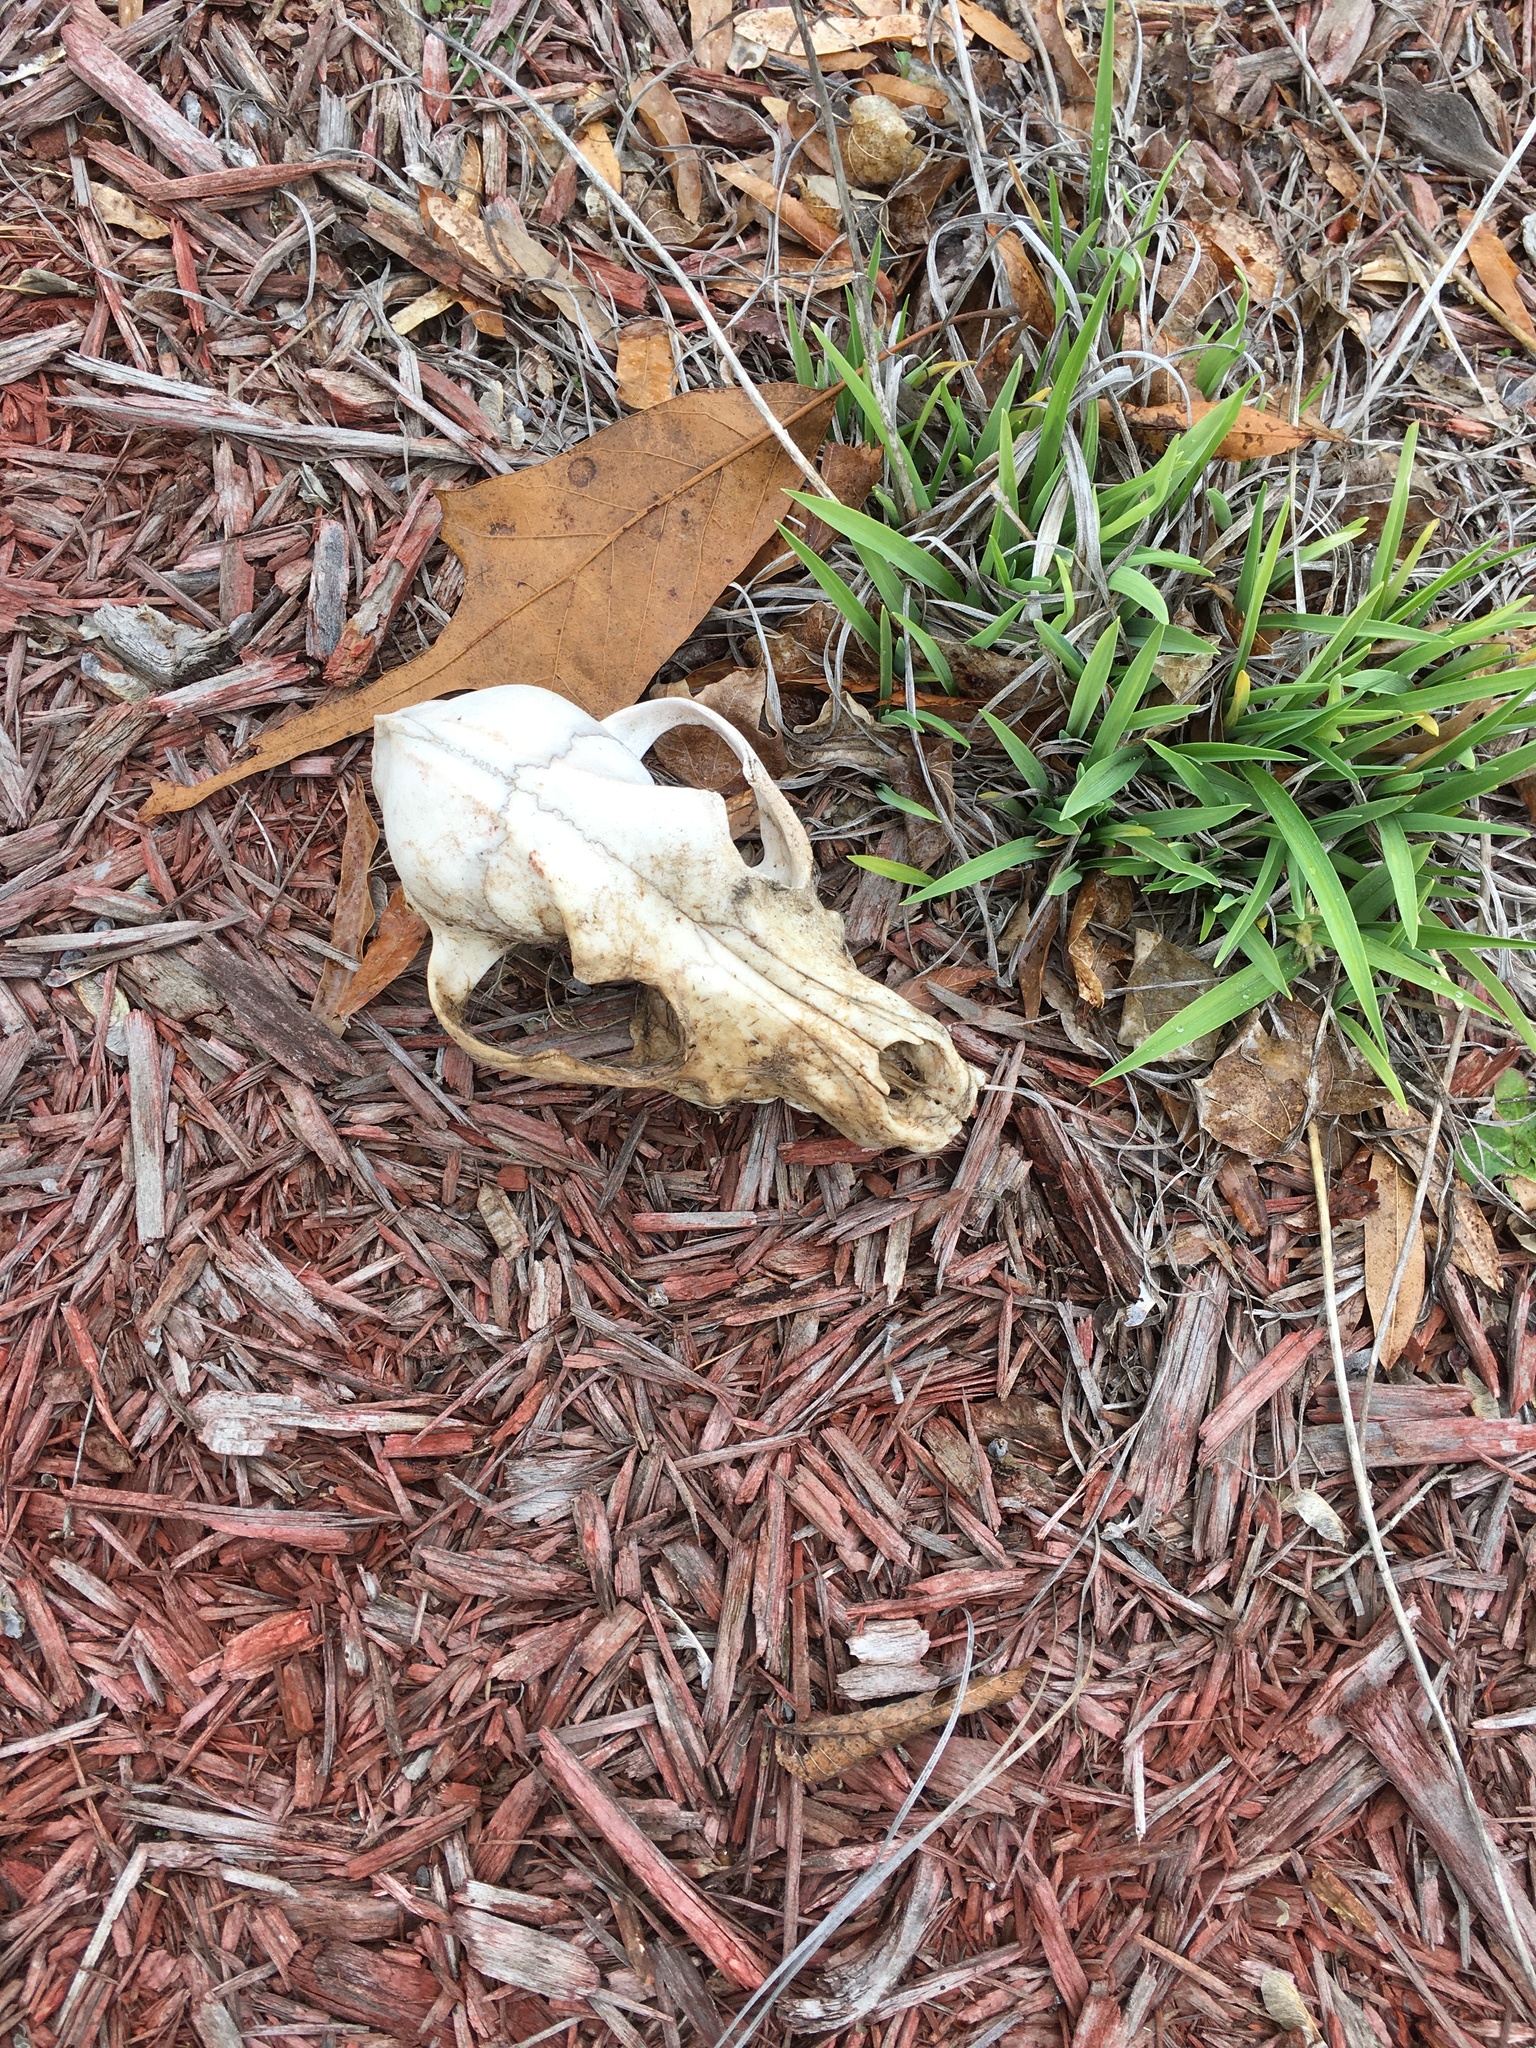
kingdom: Animalia
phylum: Chordata
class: Mammalia
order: Carnivora
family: Canidae
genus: Canis
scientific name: Canis lupus
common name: Gray wolf
